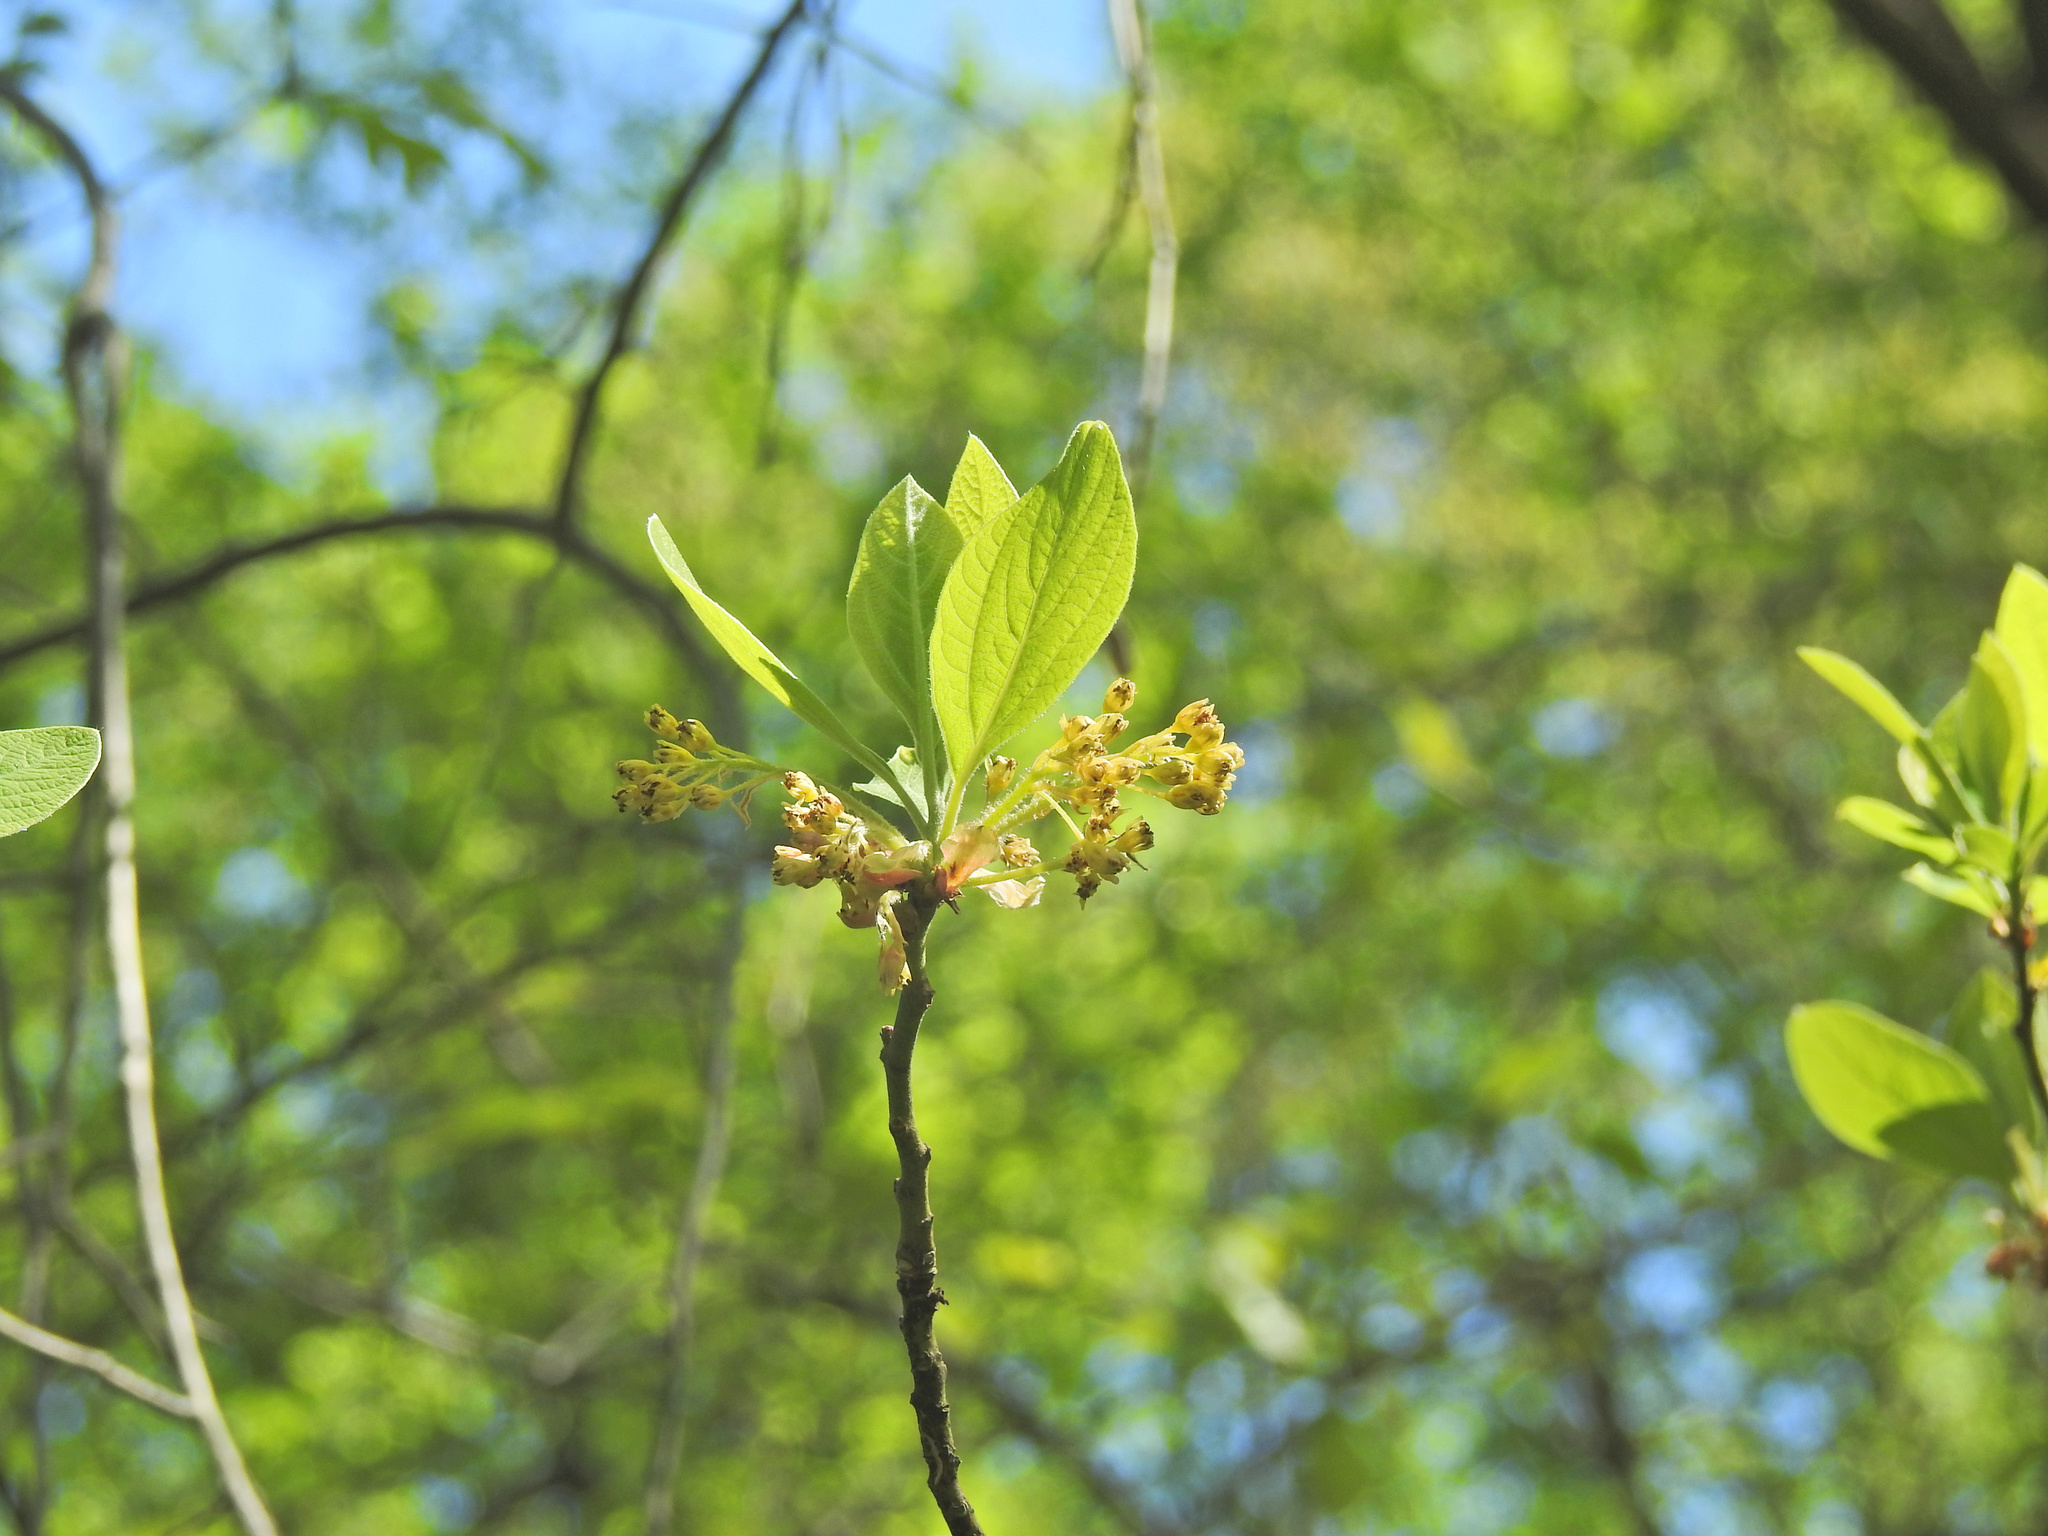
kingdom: Plantae
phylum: Tracheophyta
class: Magnoliopsida
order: Laurales
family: Lauraceae
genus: Sassafras
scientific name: Sassafras albidum
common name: Sassafras
